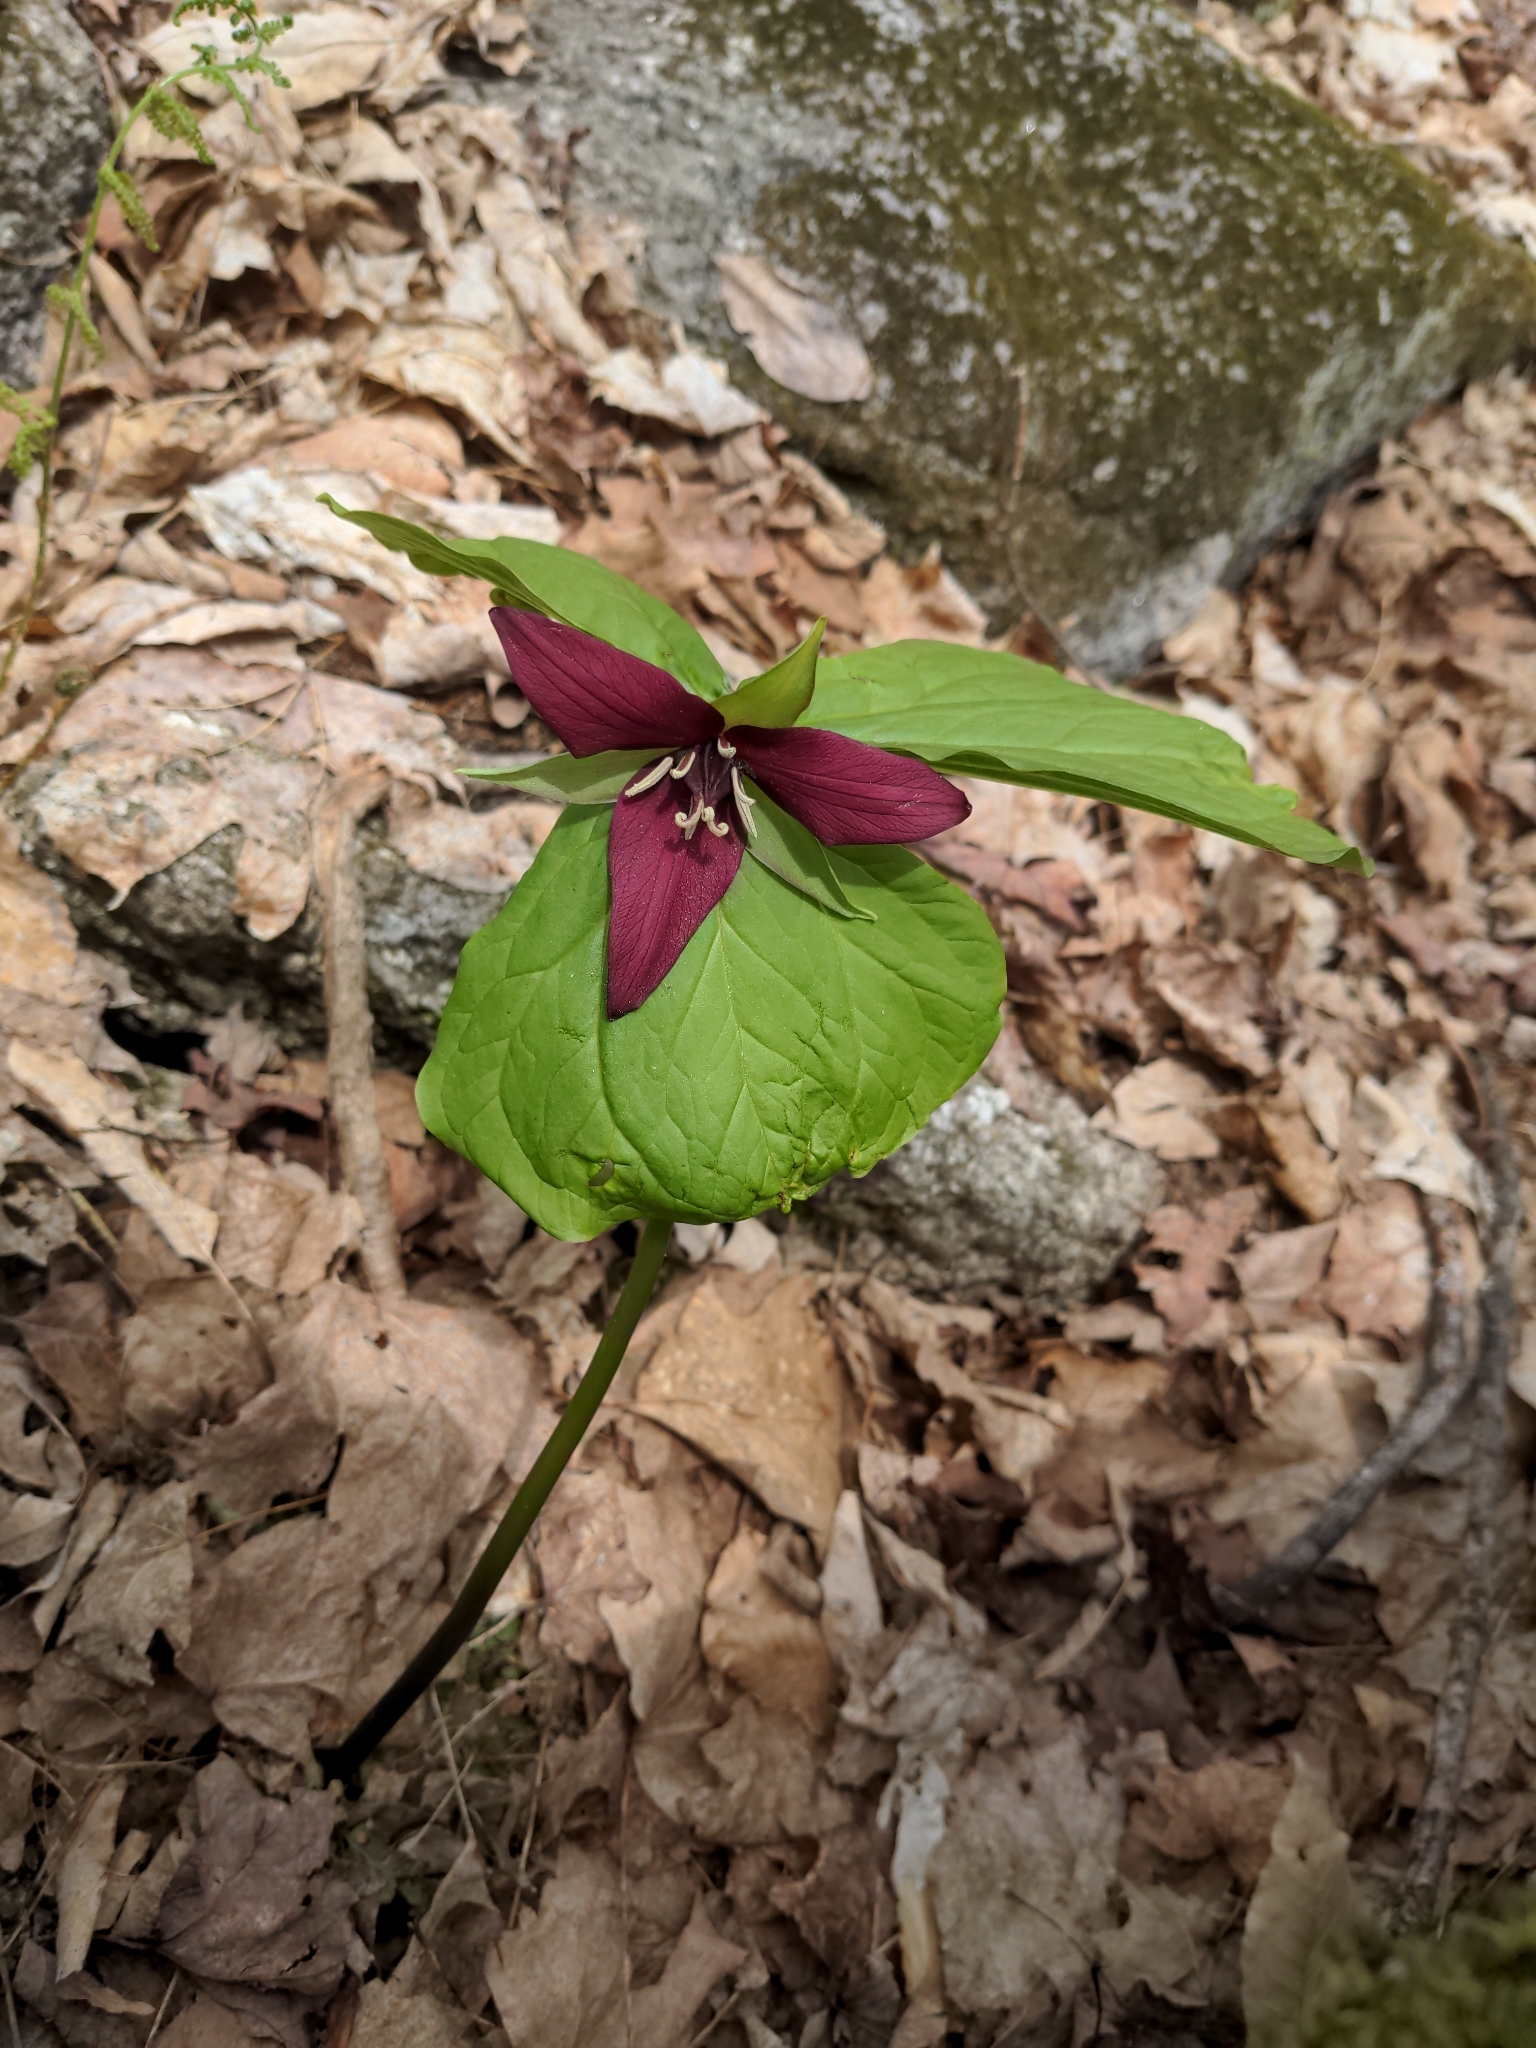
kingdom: Plantae
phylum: Tracheophyta
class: Liliopsida
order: Liliales
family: Melanthiaceae
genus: Trillium
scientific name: Trillium erectum
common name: Purple trillium
